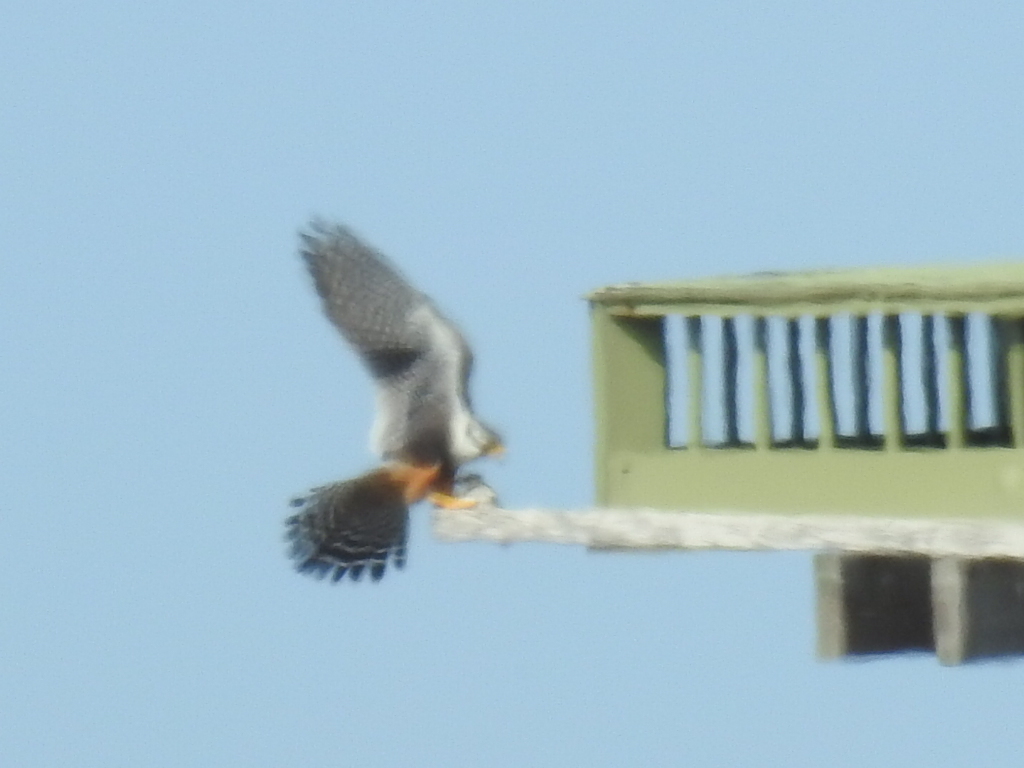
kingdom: Animalia
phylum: Chordata
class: Aves
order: Falconiformes
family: Falconidae
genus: Falco
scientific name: Falco femoralis
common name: Aplomado falcon
